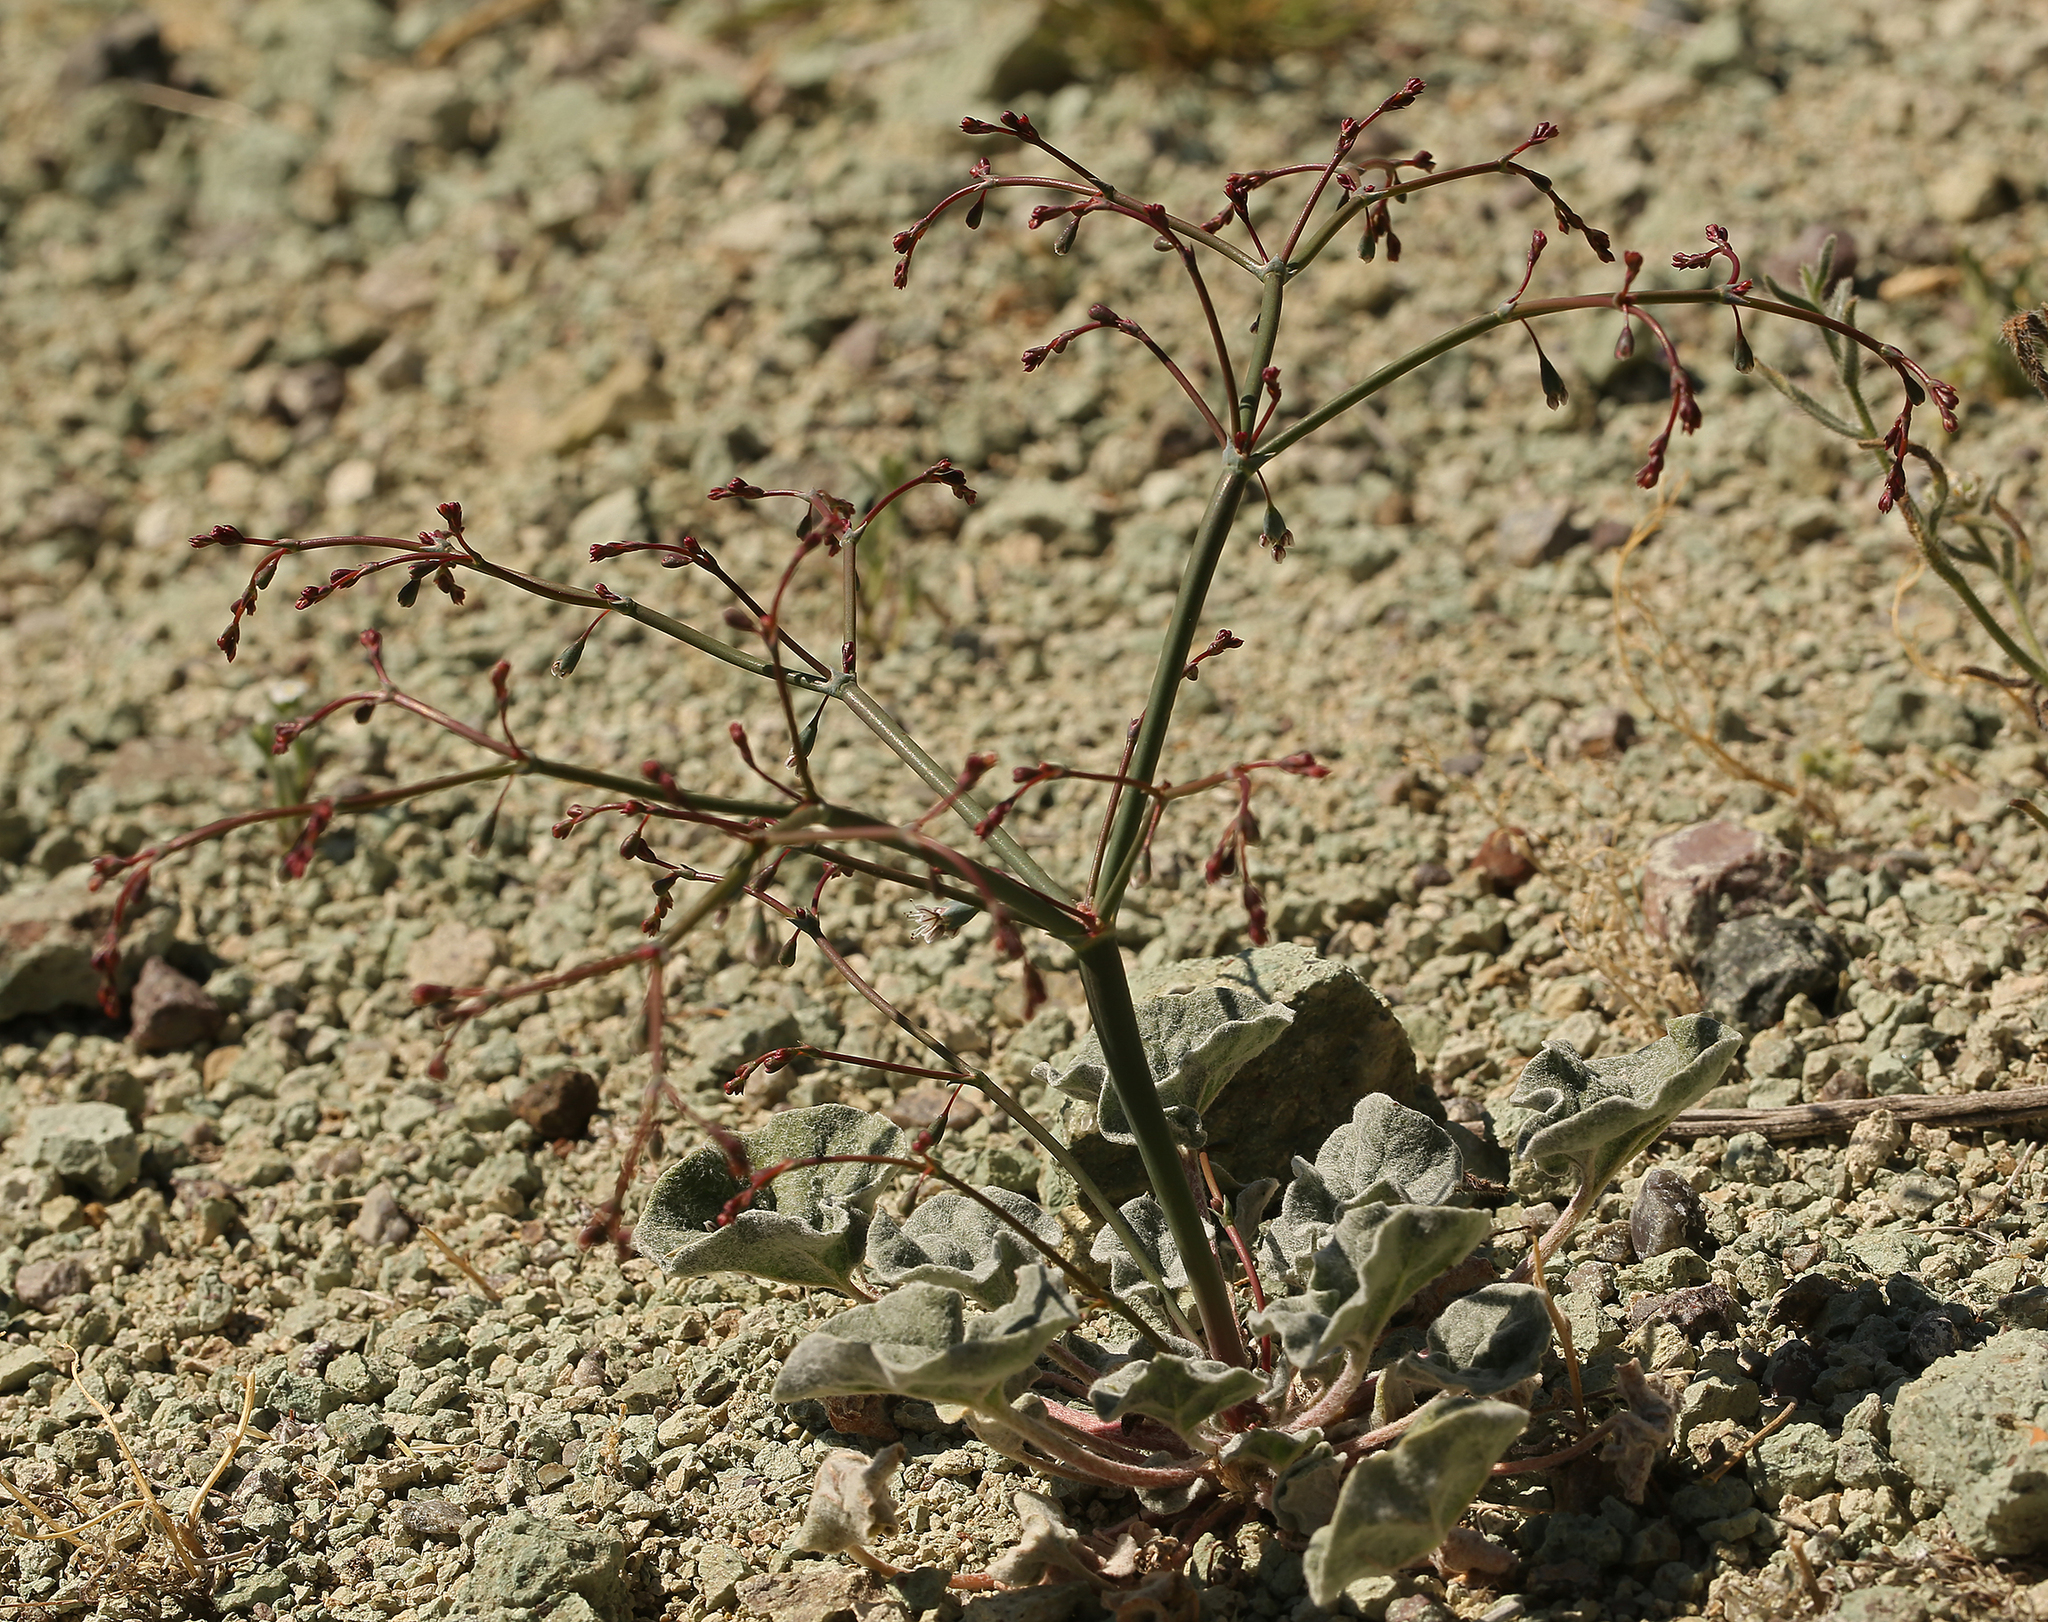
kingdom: Plantae
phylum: Tracheophyta
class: Magnoliopsida
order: Caryophyllales
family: Polygonaceae
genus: Eriogonum
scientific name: Eriogonum deflexum
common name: Skeleton-weed
